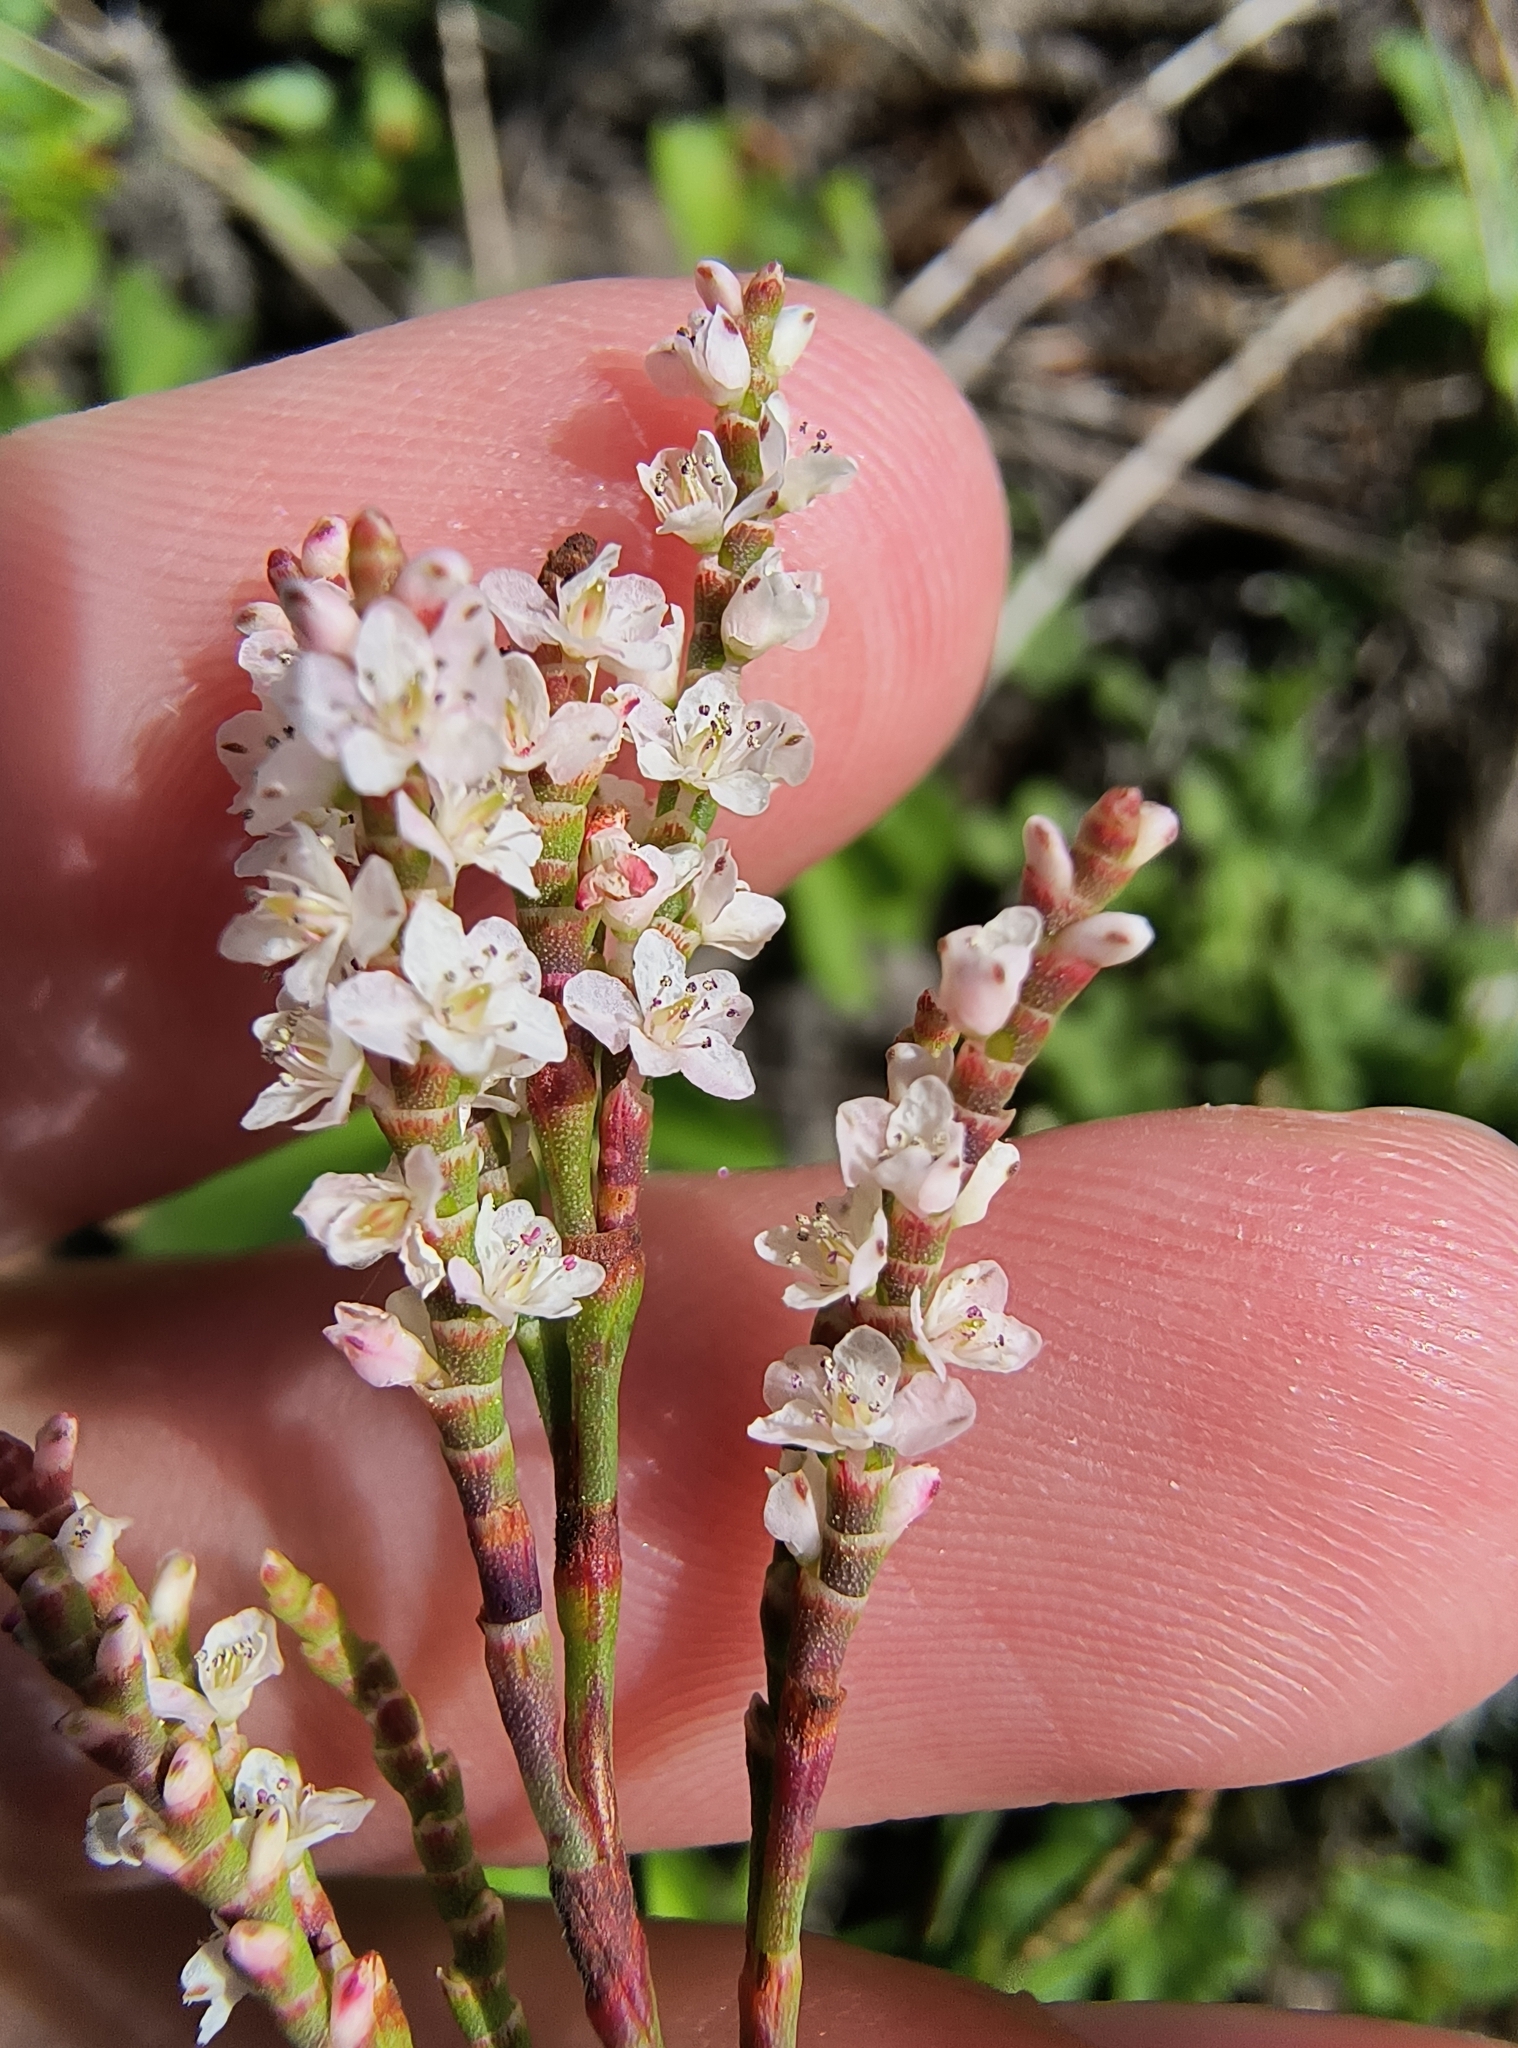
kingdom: Plantae
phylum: Tracheophyta
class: Magnoliopsida
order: Caryophyllales
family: Polygonaceae
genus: Polygonella
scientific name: Polygonella articulata
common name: Coastal jointweed
